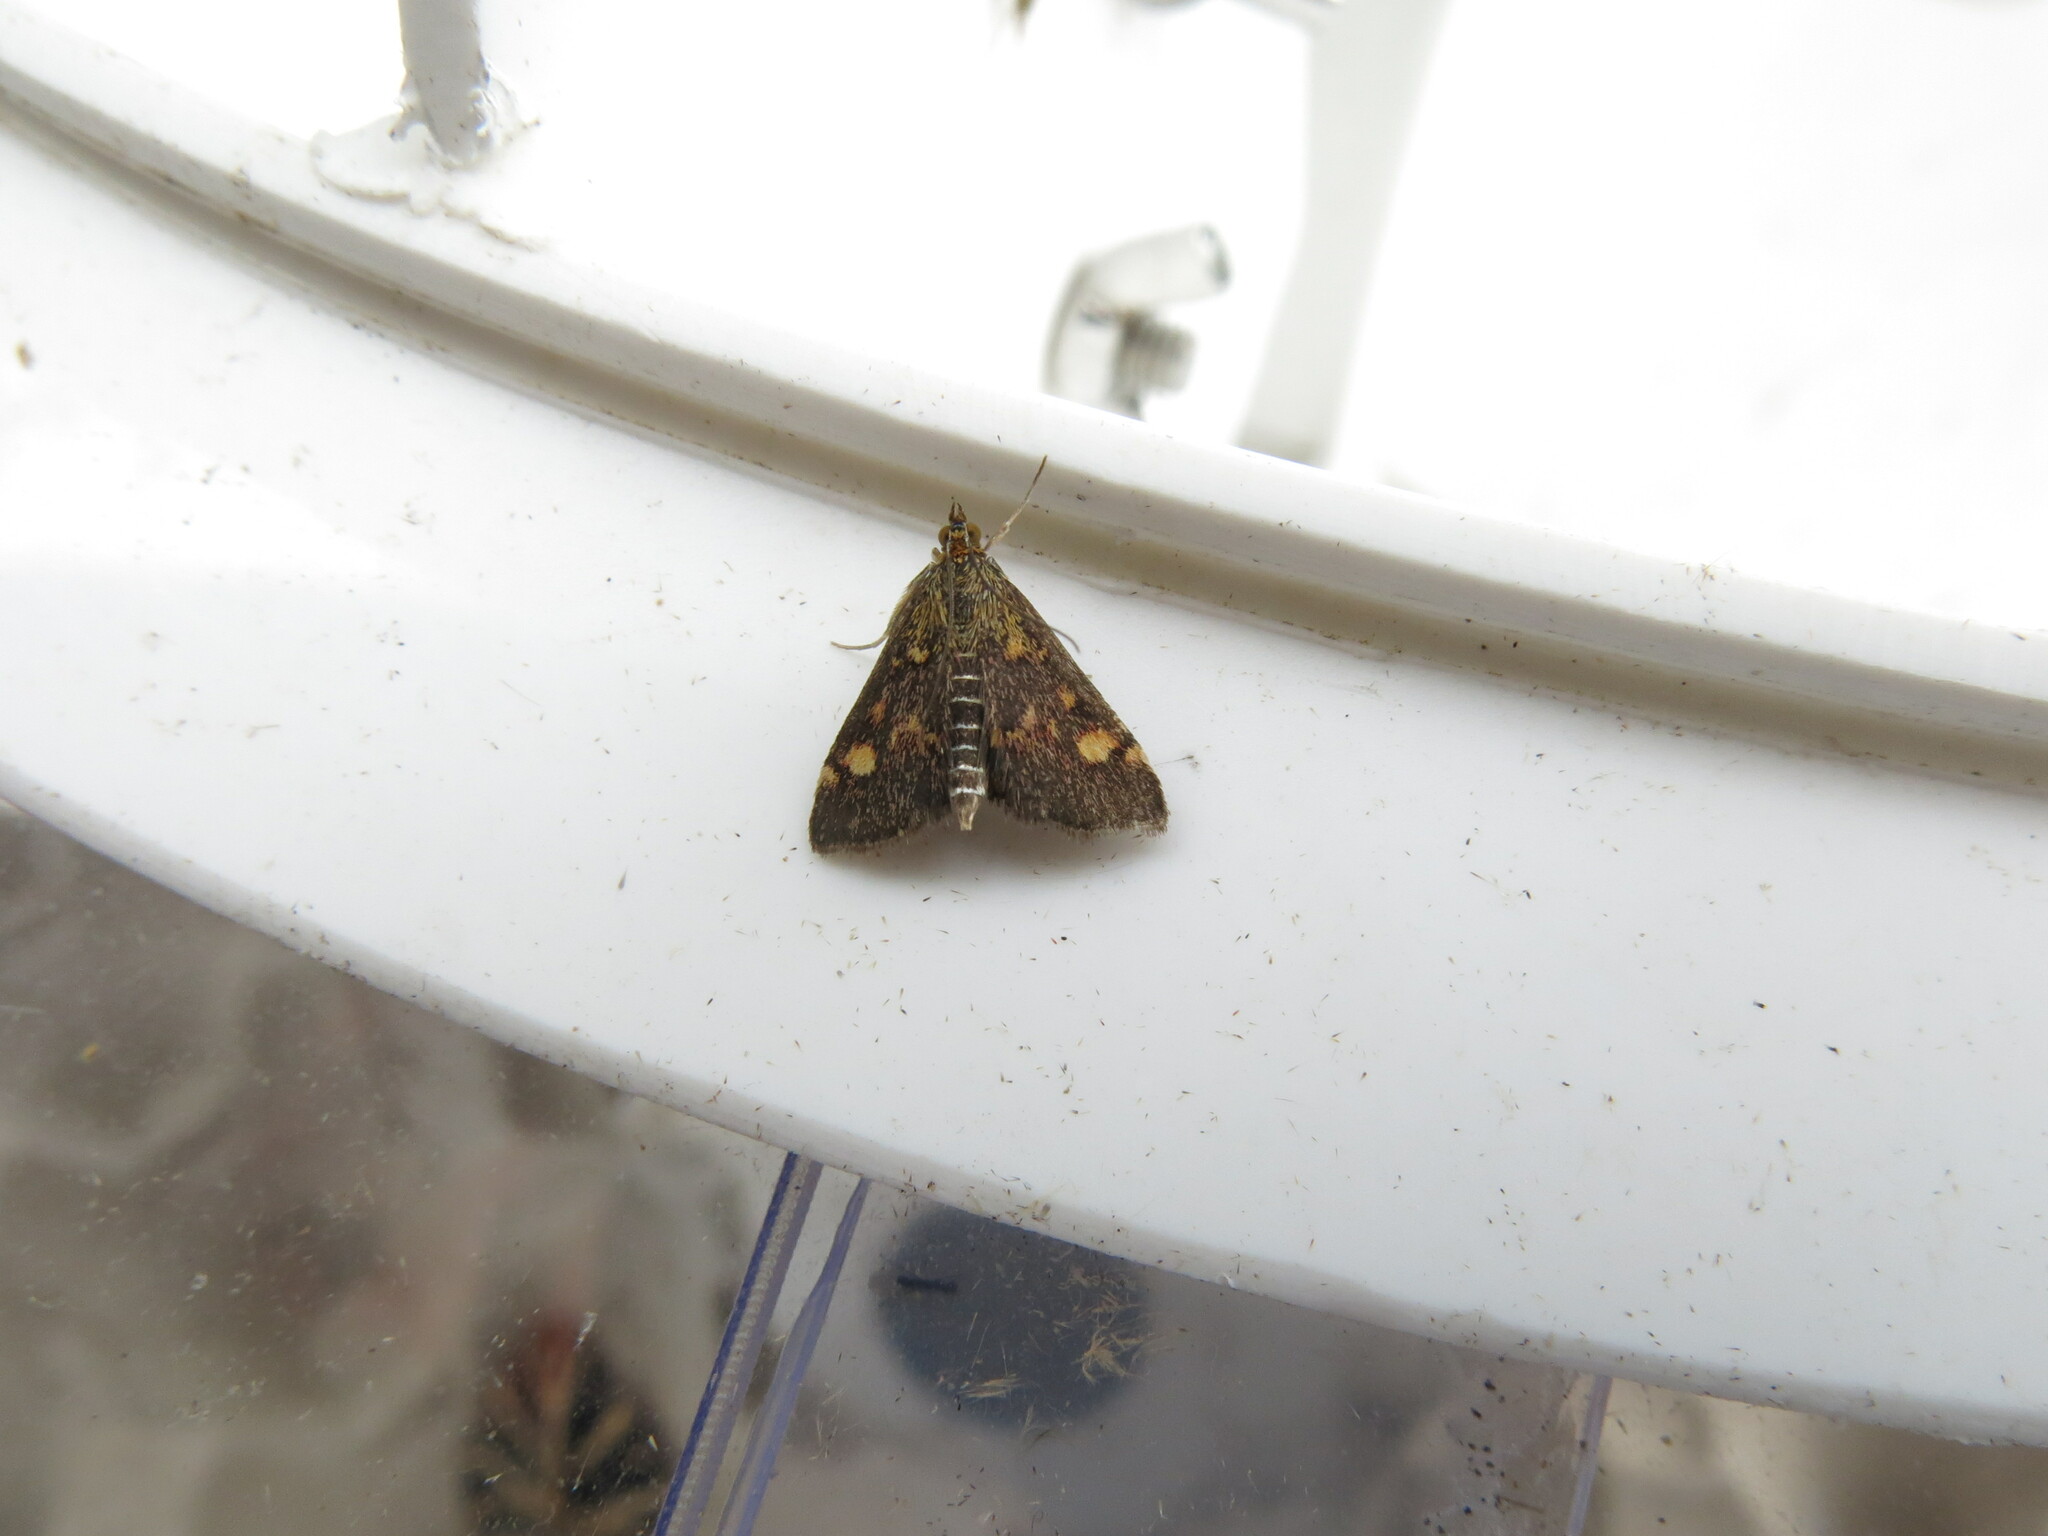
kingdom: Animalia
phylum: Arthropoda
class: Insecta
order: Lepidoptera
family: Crambidae
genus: Pyrausta
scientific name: Pyrausta aurata
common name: Small purple & gold
